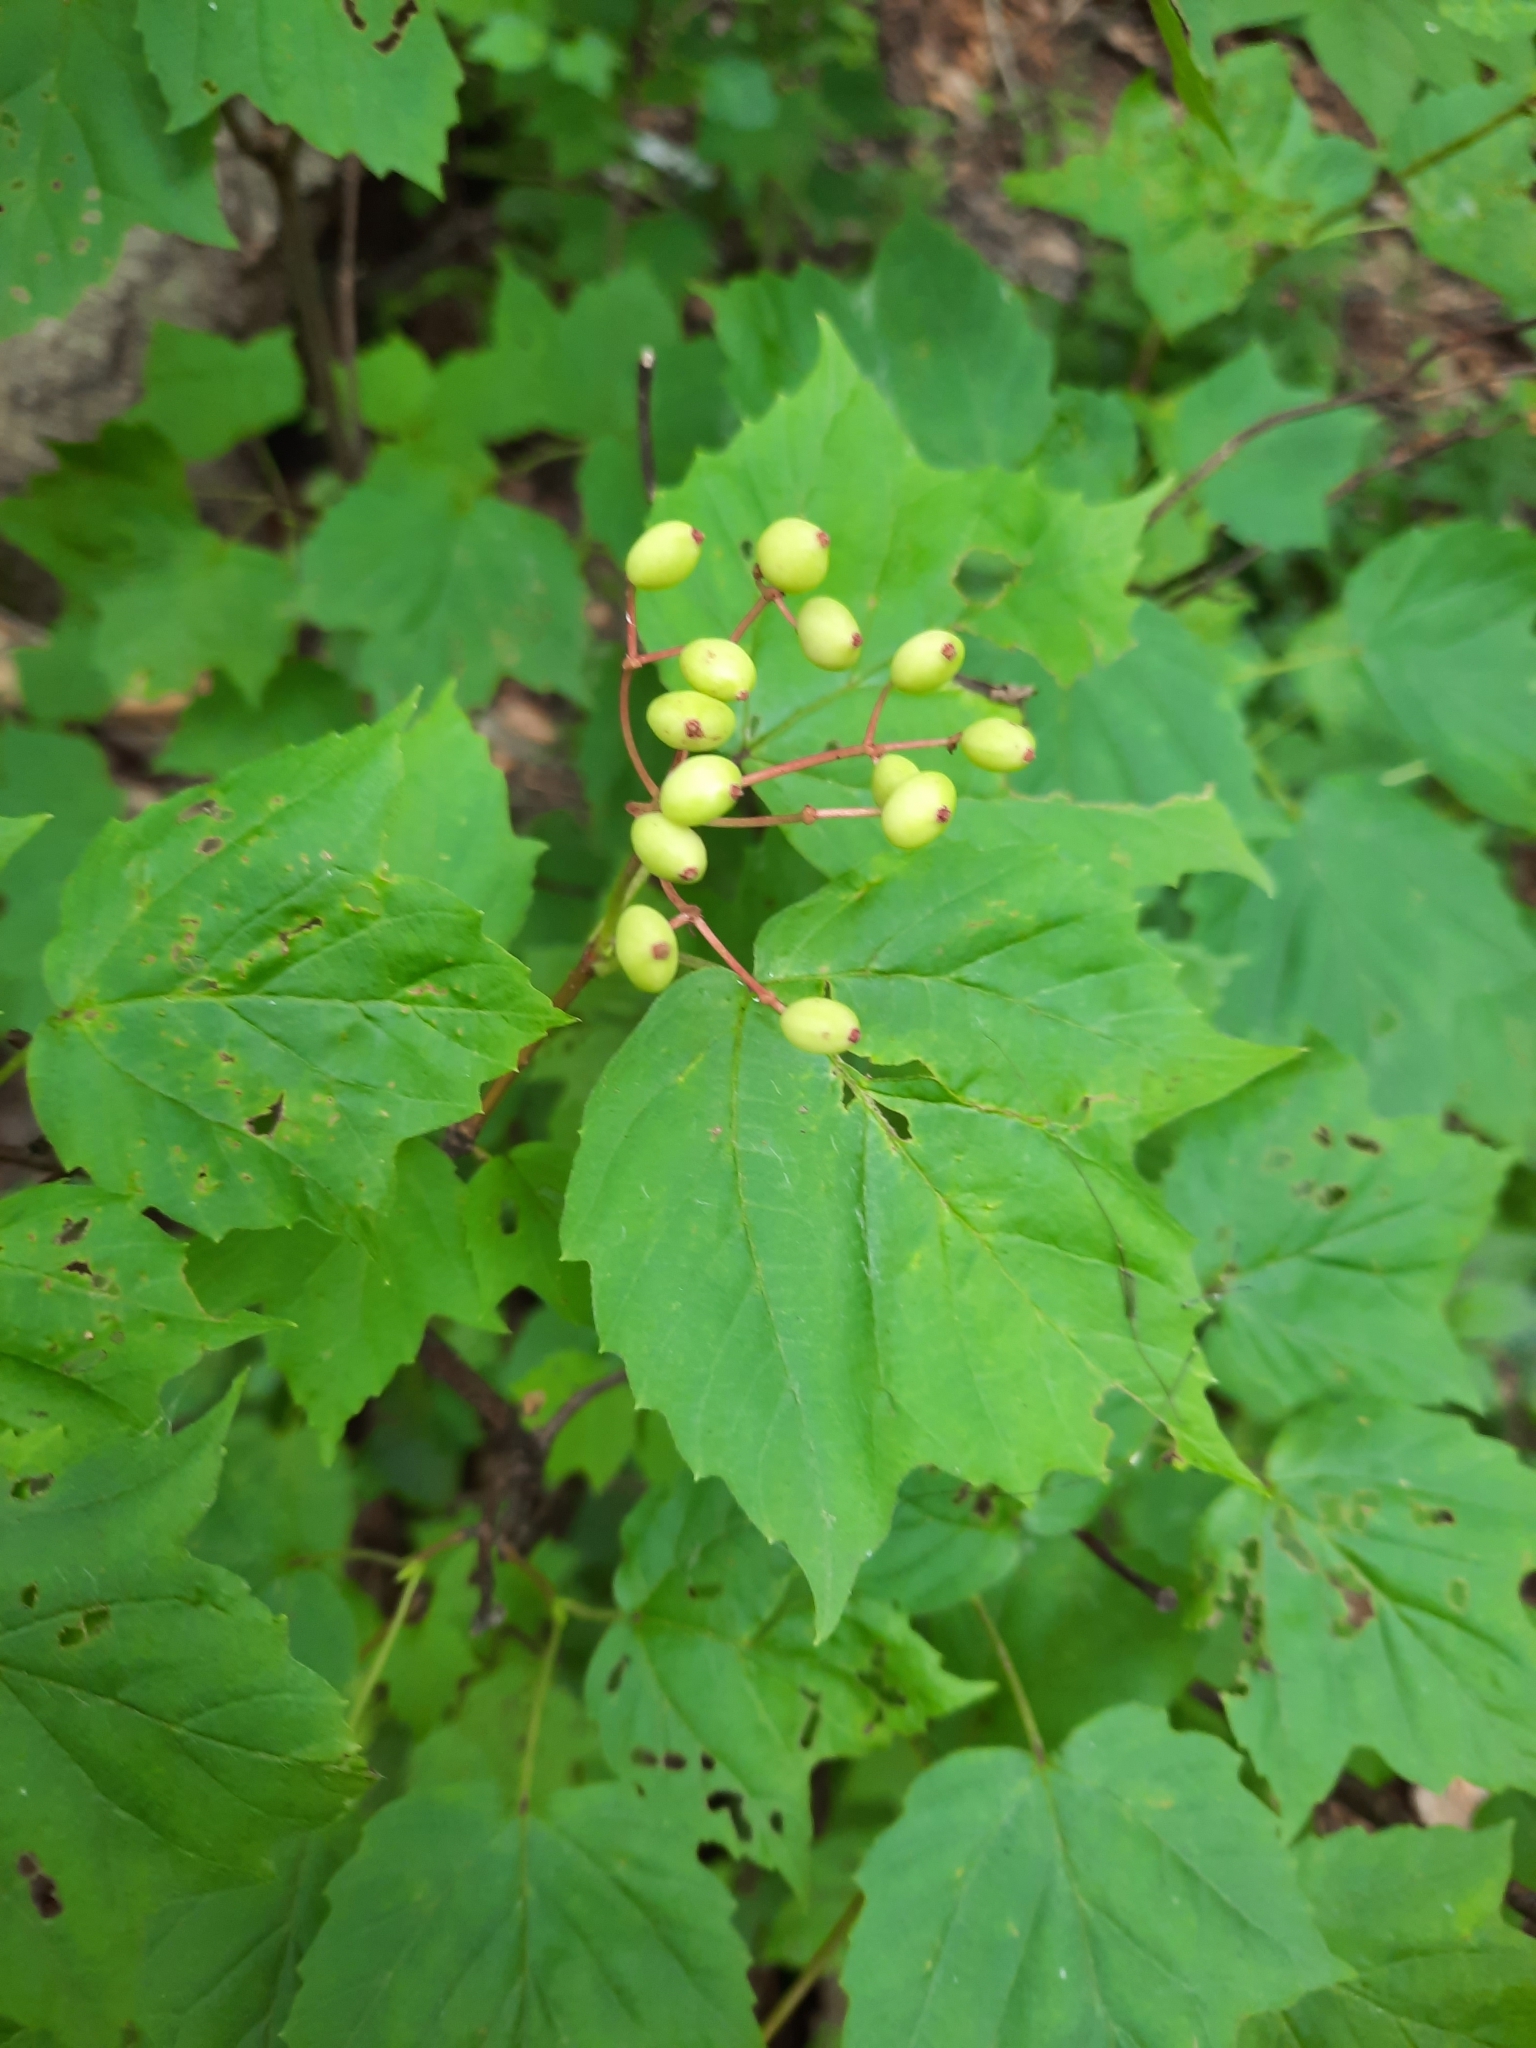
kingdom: Plantae
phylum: Tracheophyta
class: Magnoliopsida
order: Dipsacales
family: Viburnaceae
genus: Viburnum
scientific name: Viburnum acerifolium
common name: Dockmackie
